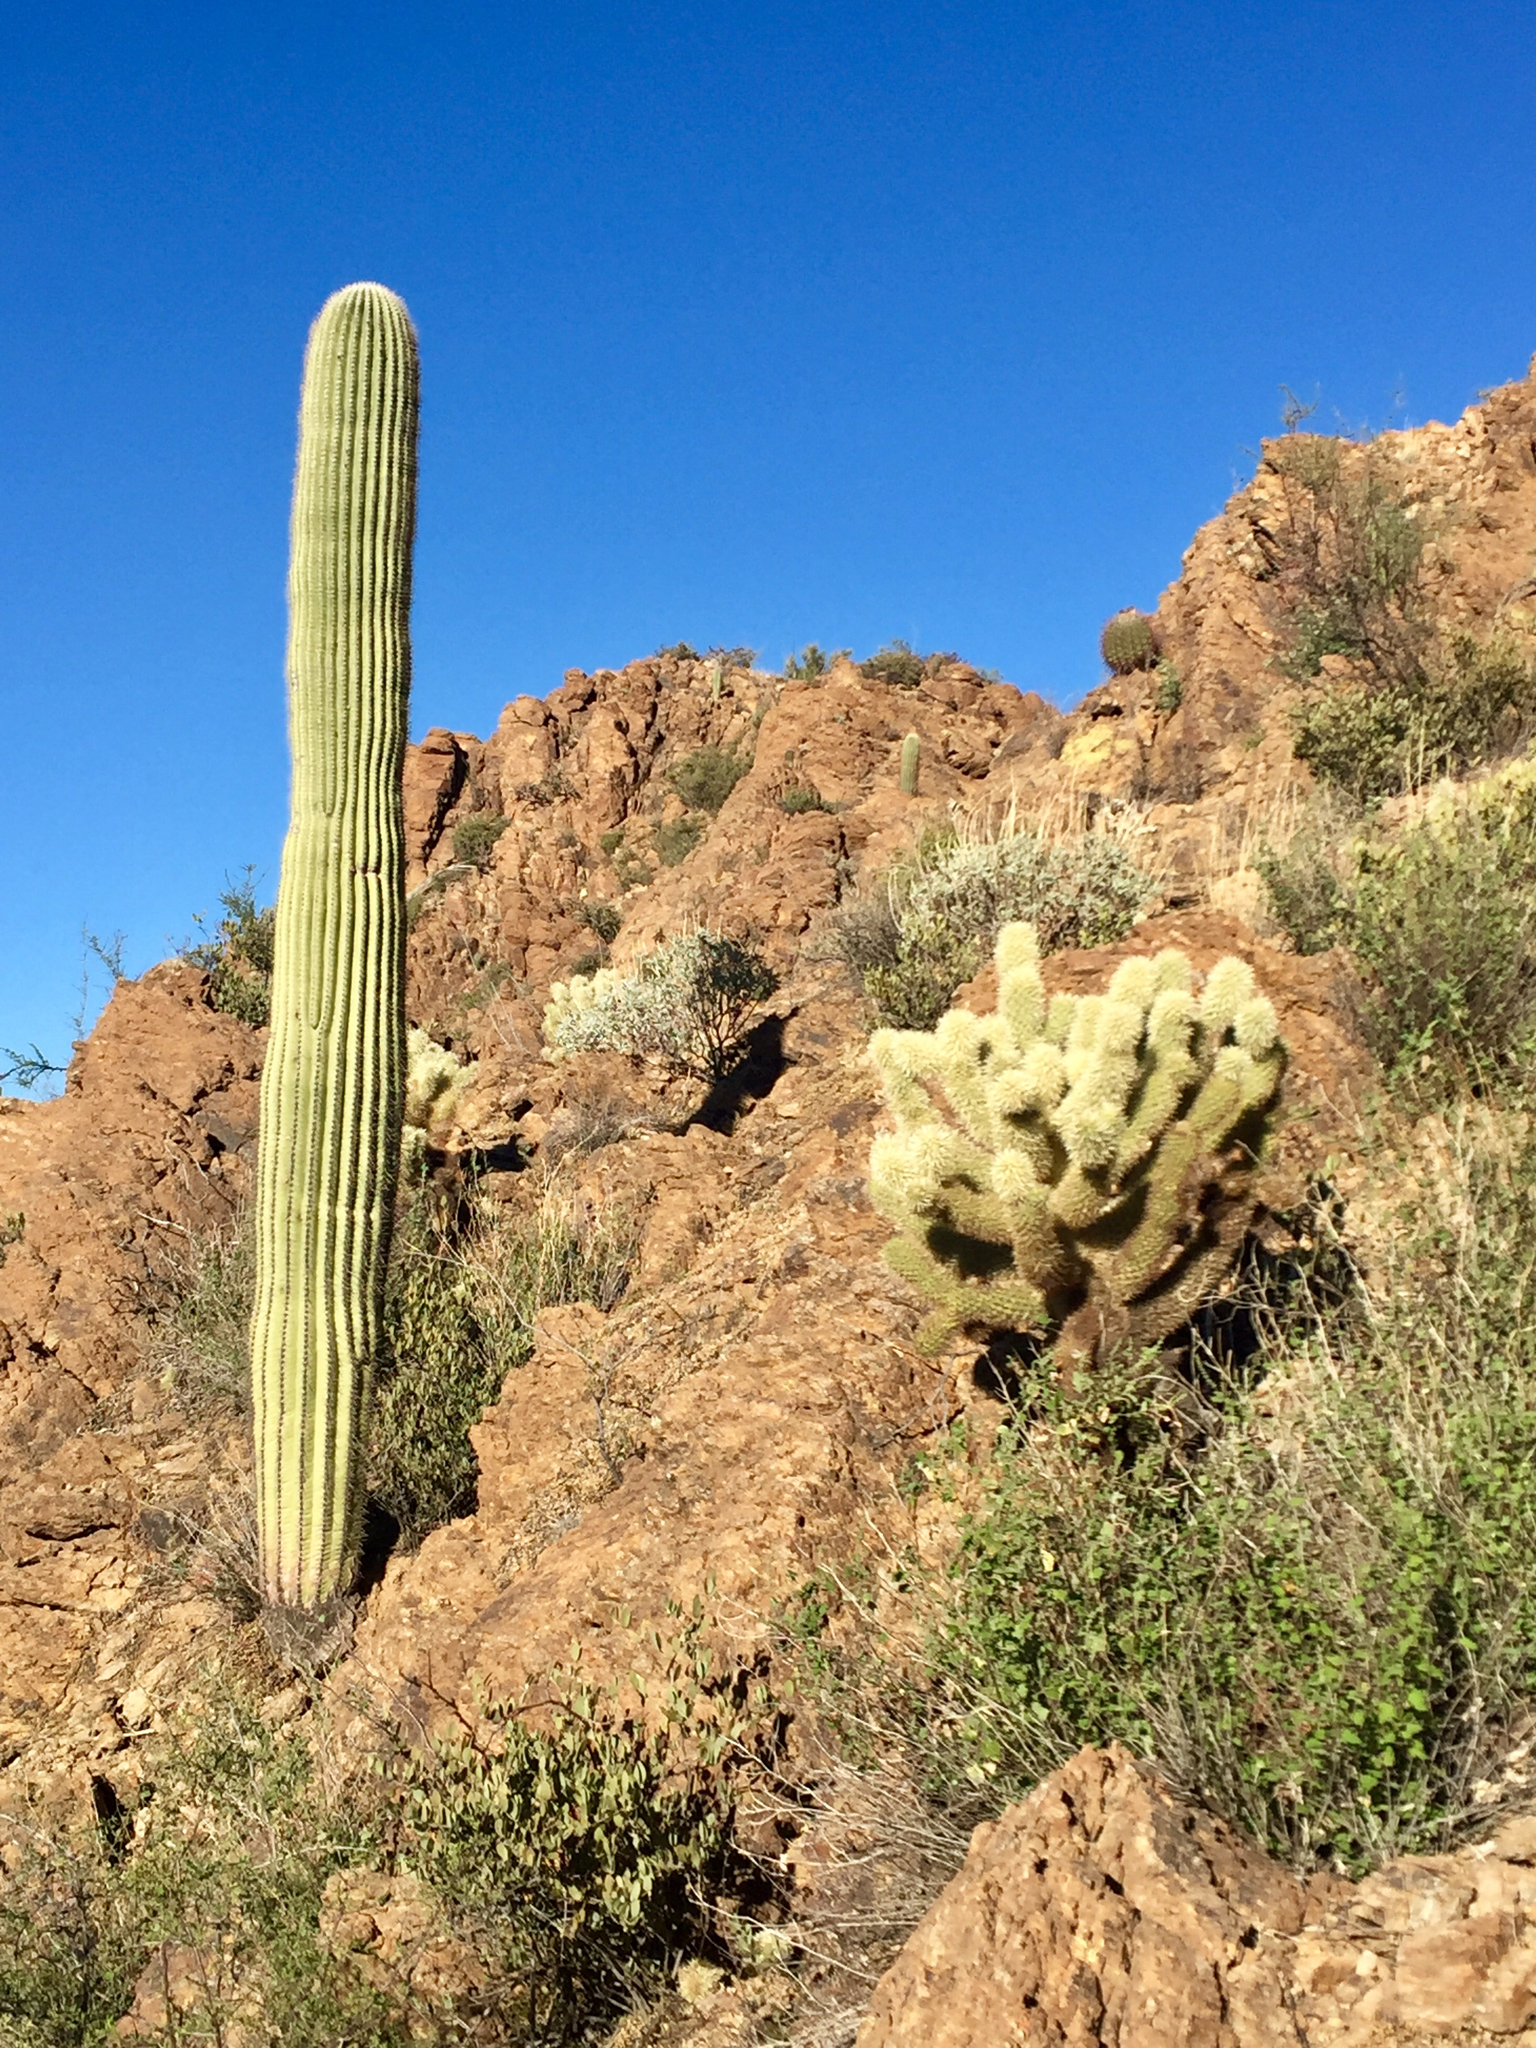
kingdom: Plantae
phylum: Tracheophyta
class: Magnoliopsida
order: Caryophyllales
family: Cactaceae
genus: Cylindropuntia
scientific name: Cylindropuntia fosbergii
